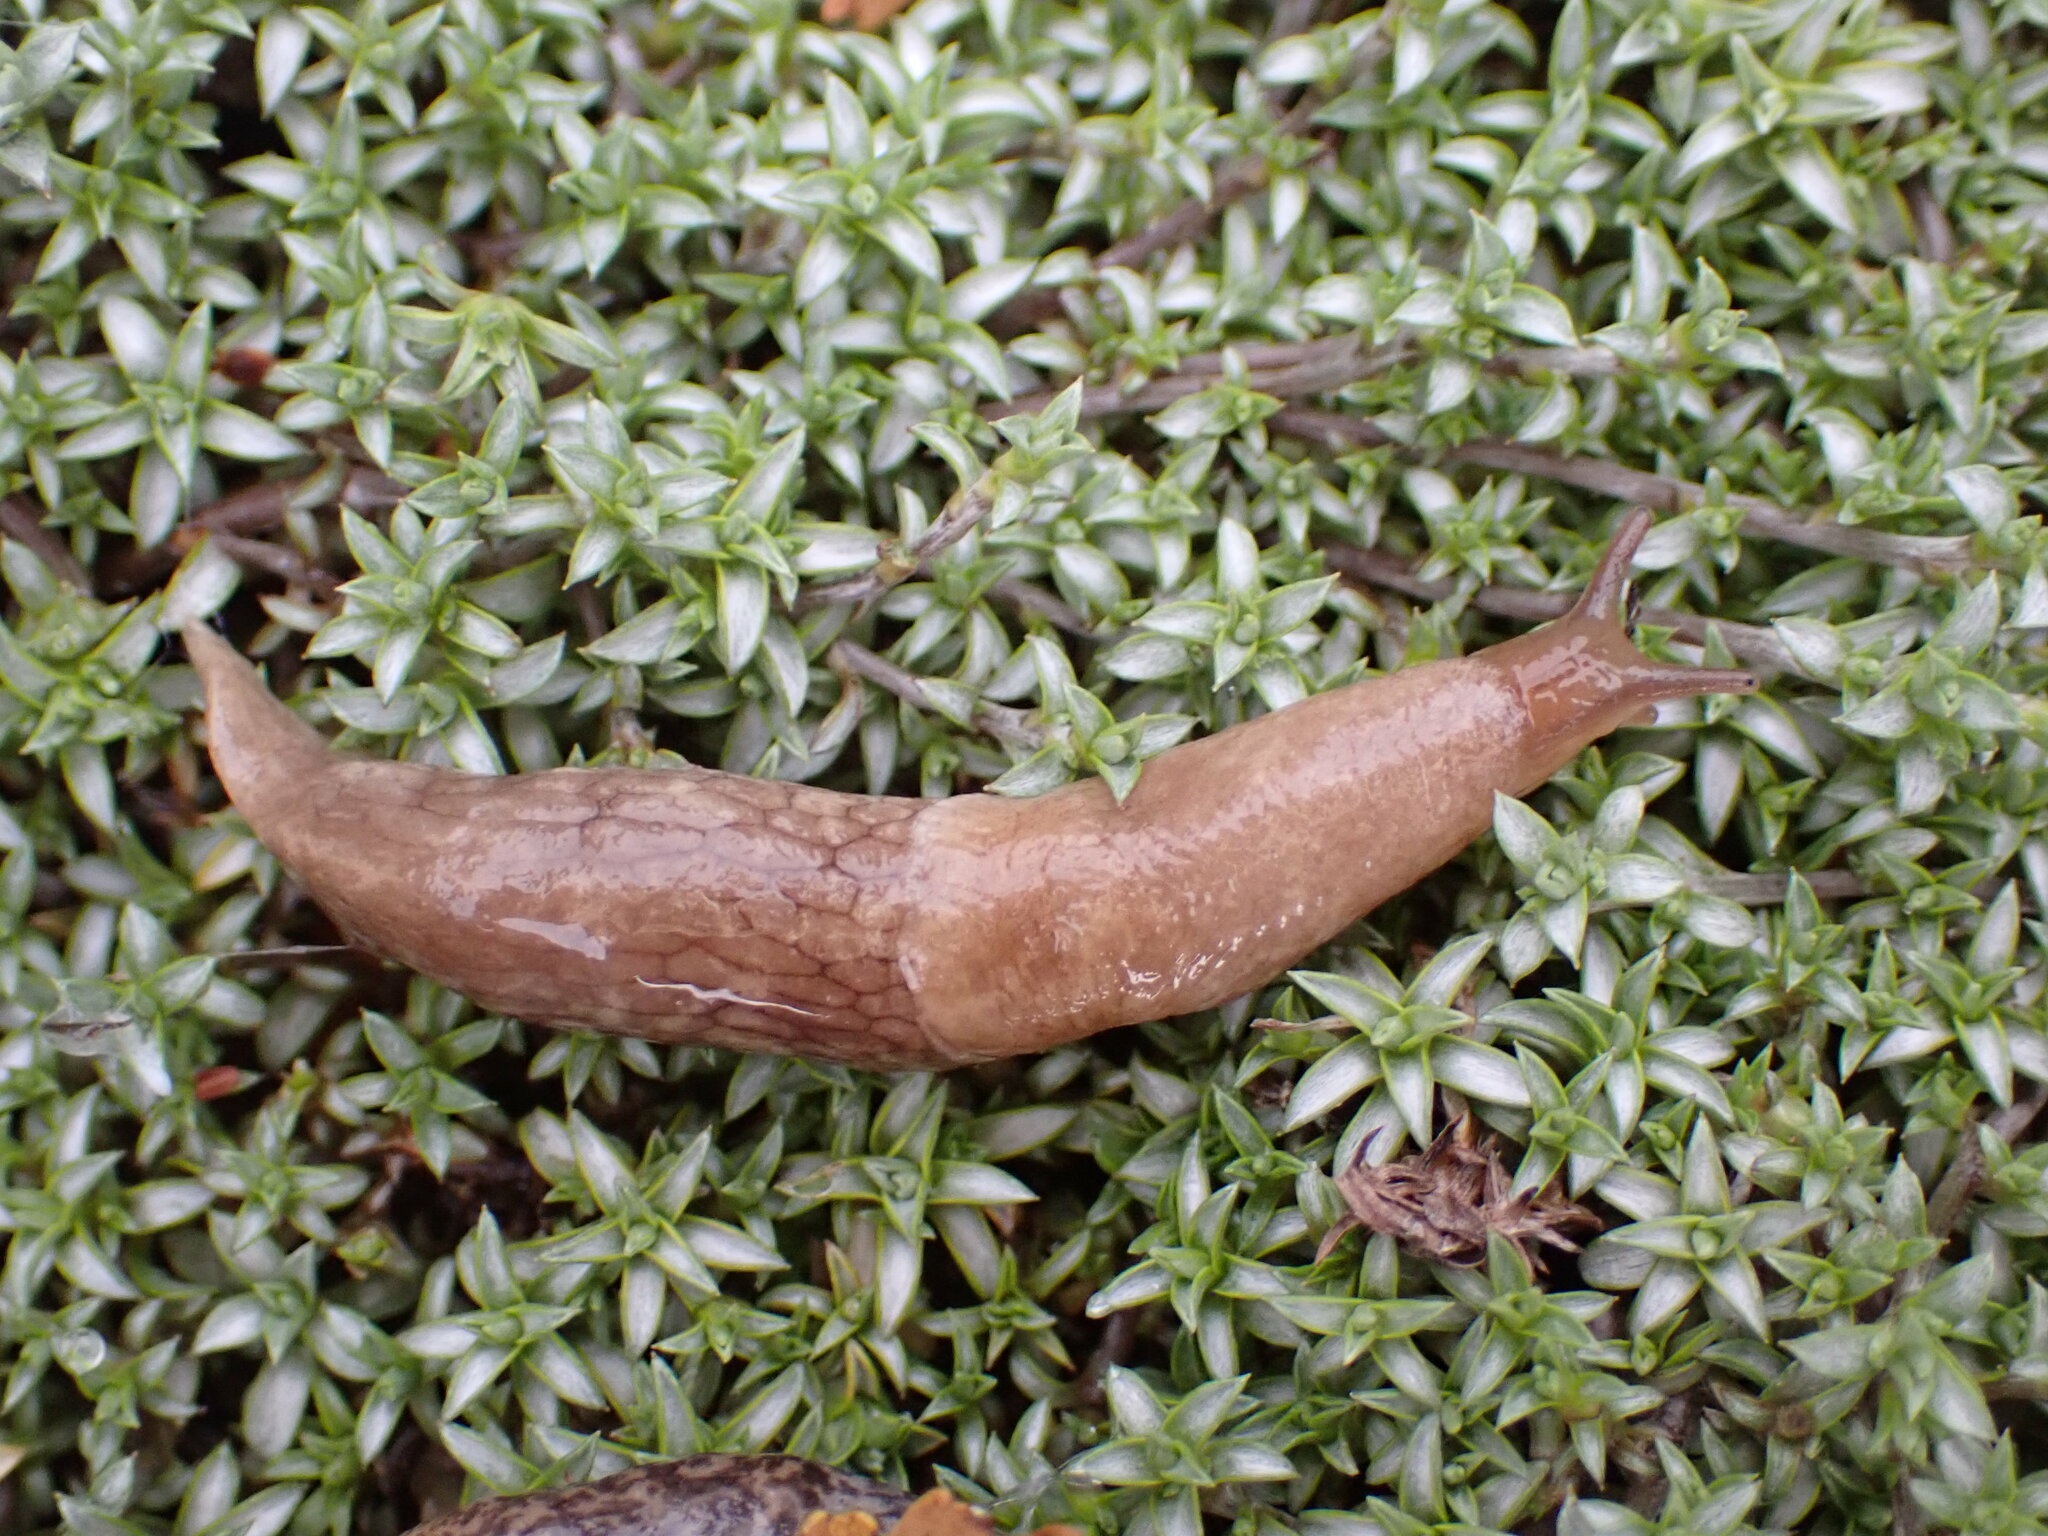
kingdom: Animalia
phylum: Mollusca
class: Gastropoda
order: Stylommatophora
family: Agriolimacidae
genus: Deroceras
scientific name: Deroceras reticulatum
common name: Gray field slug
